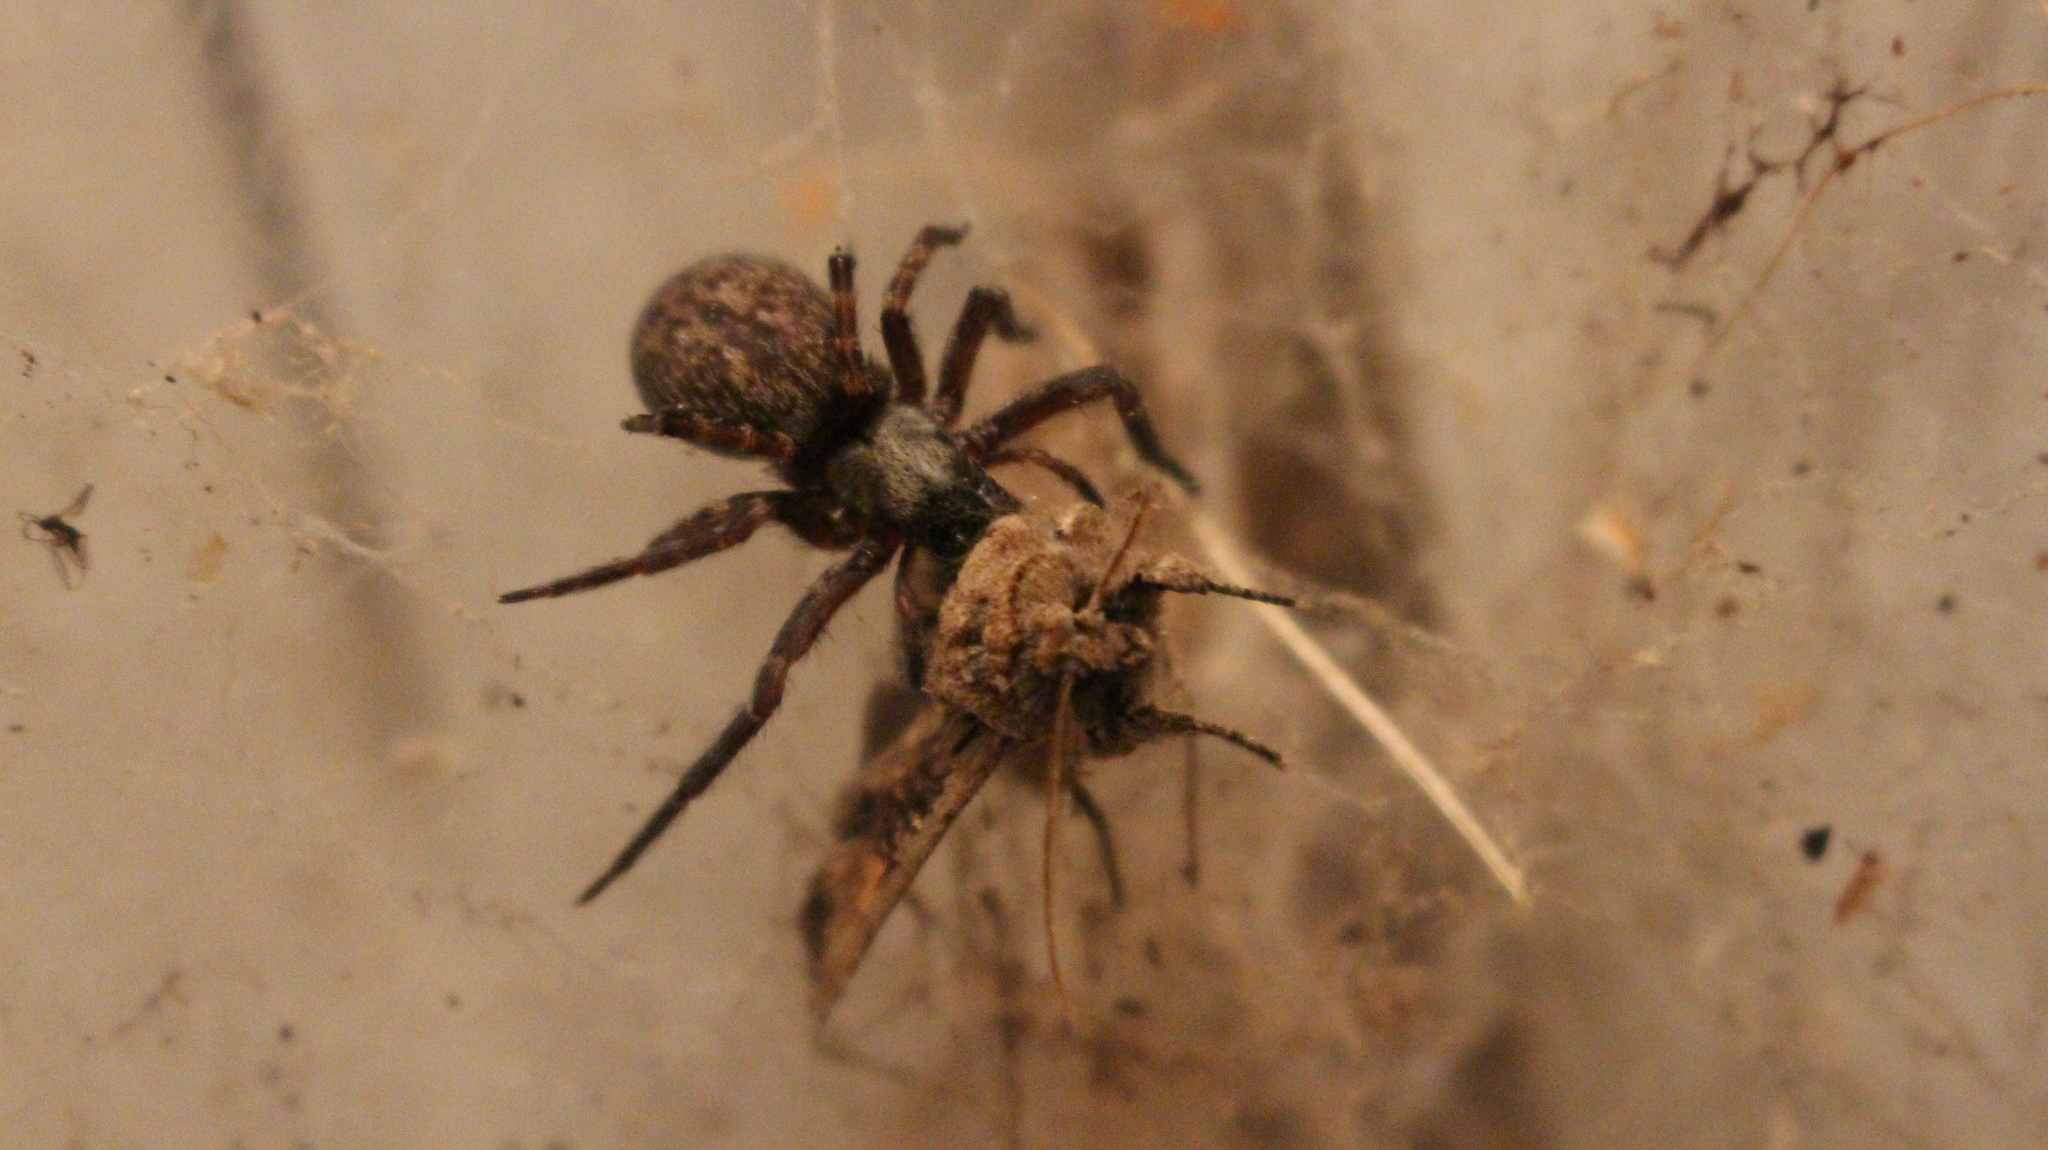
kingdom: Animalia
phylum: Arthropoda
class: Arachnida
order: Araneae
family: Desidae
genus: Badumna
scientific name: Badumna longinqua
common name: Gray house spider
